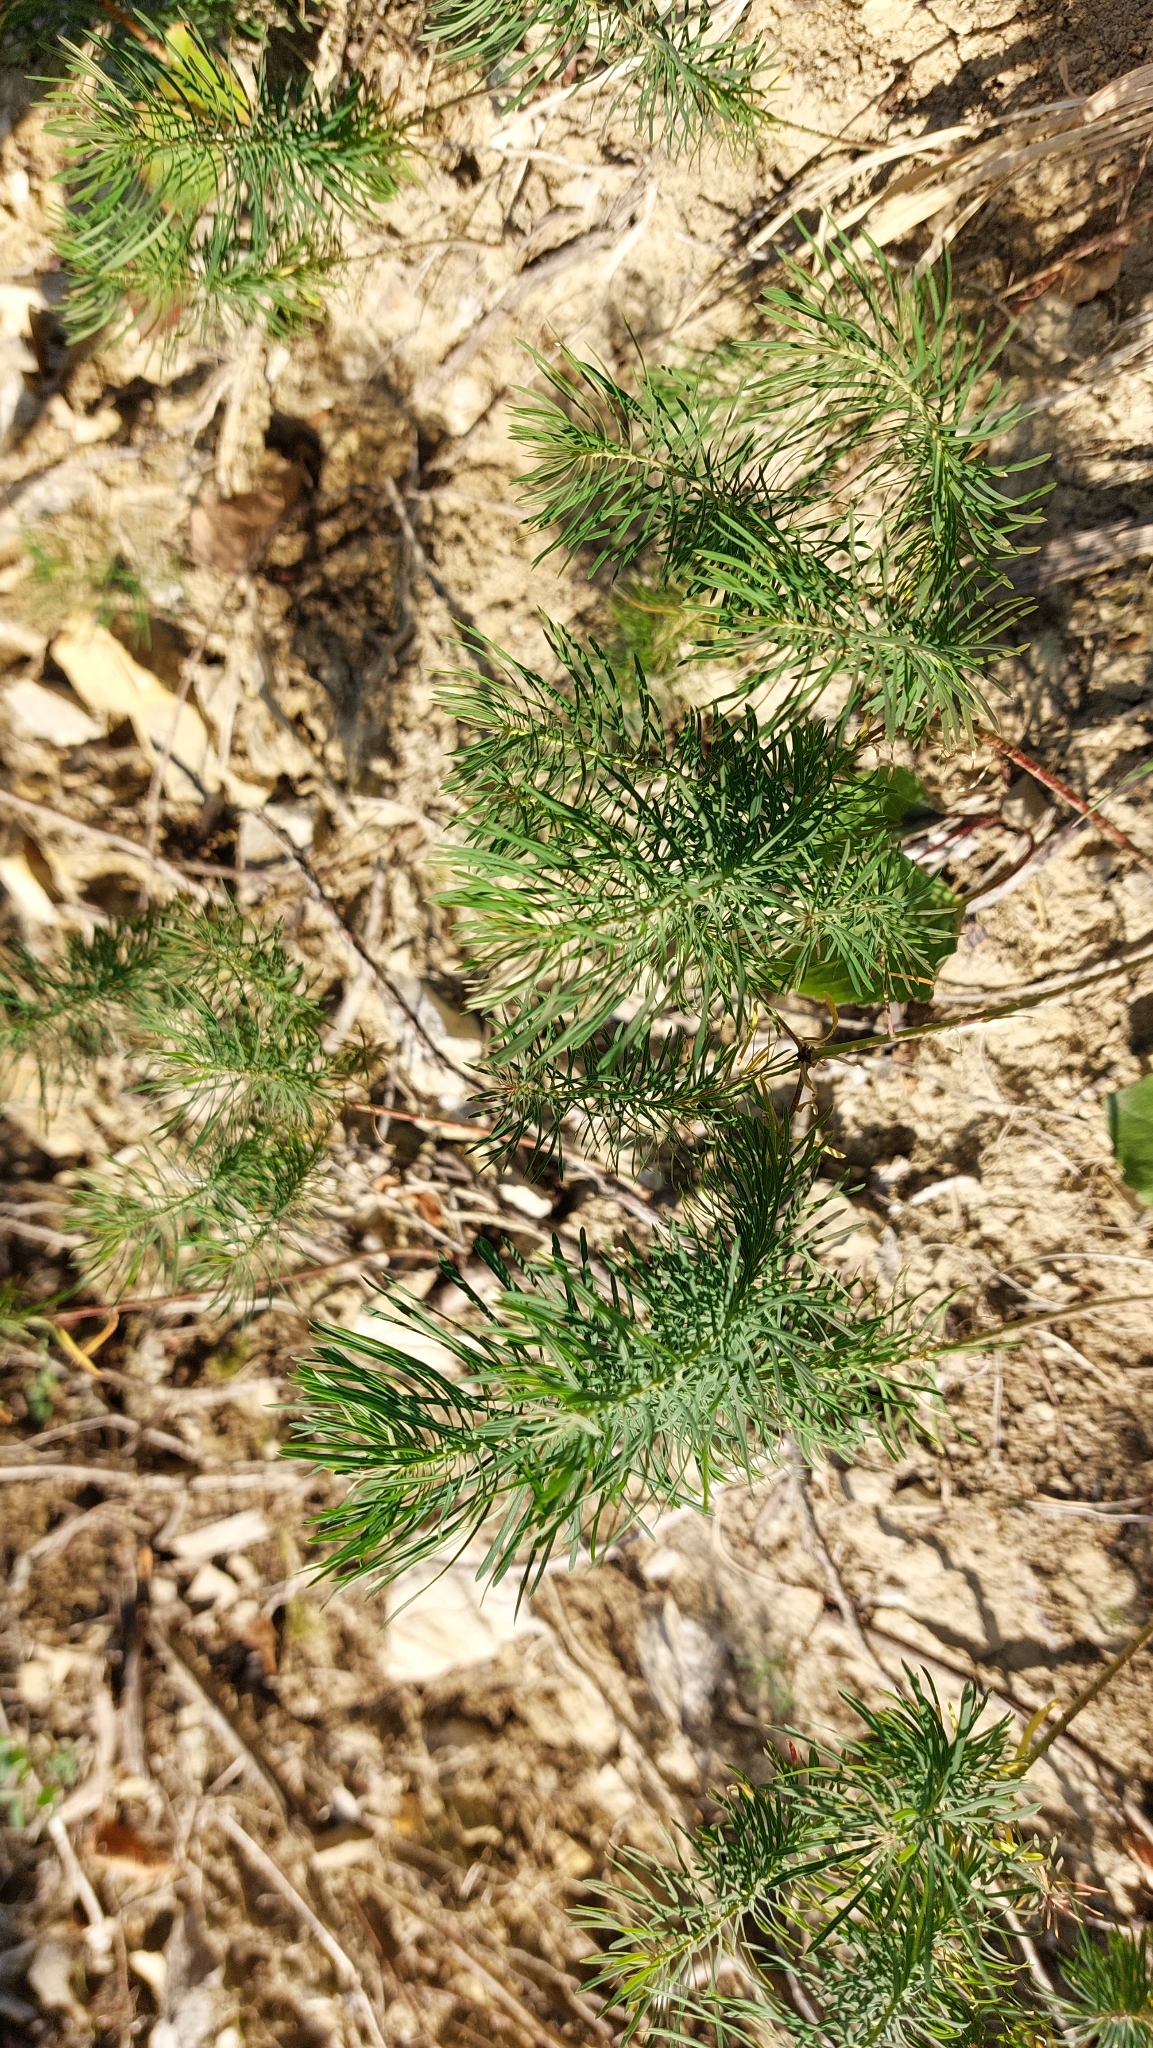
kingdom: Plantae
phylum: Tracheophyta
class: Magnoliopsida
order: Malpighiales
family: Euphorbiaceae
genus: Euphorbia
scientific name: Euphorbia cyparissias
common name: Cypress spurge
